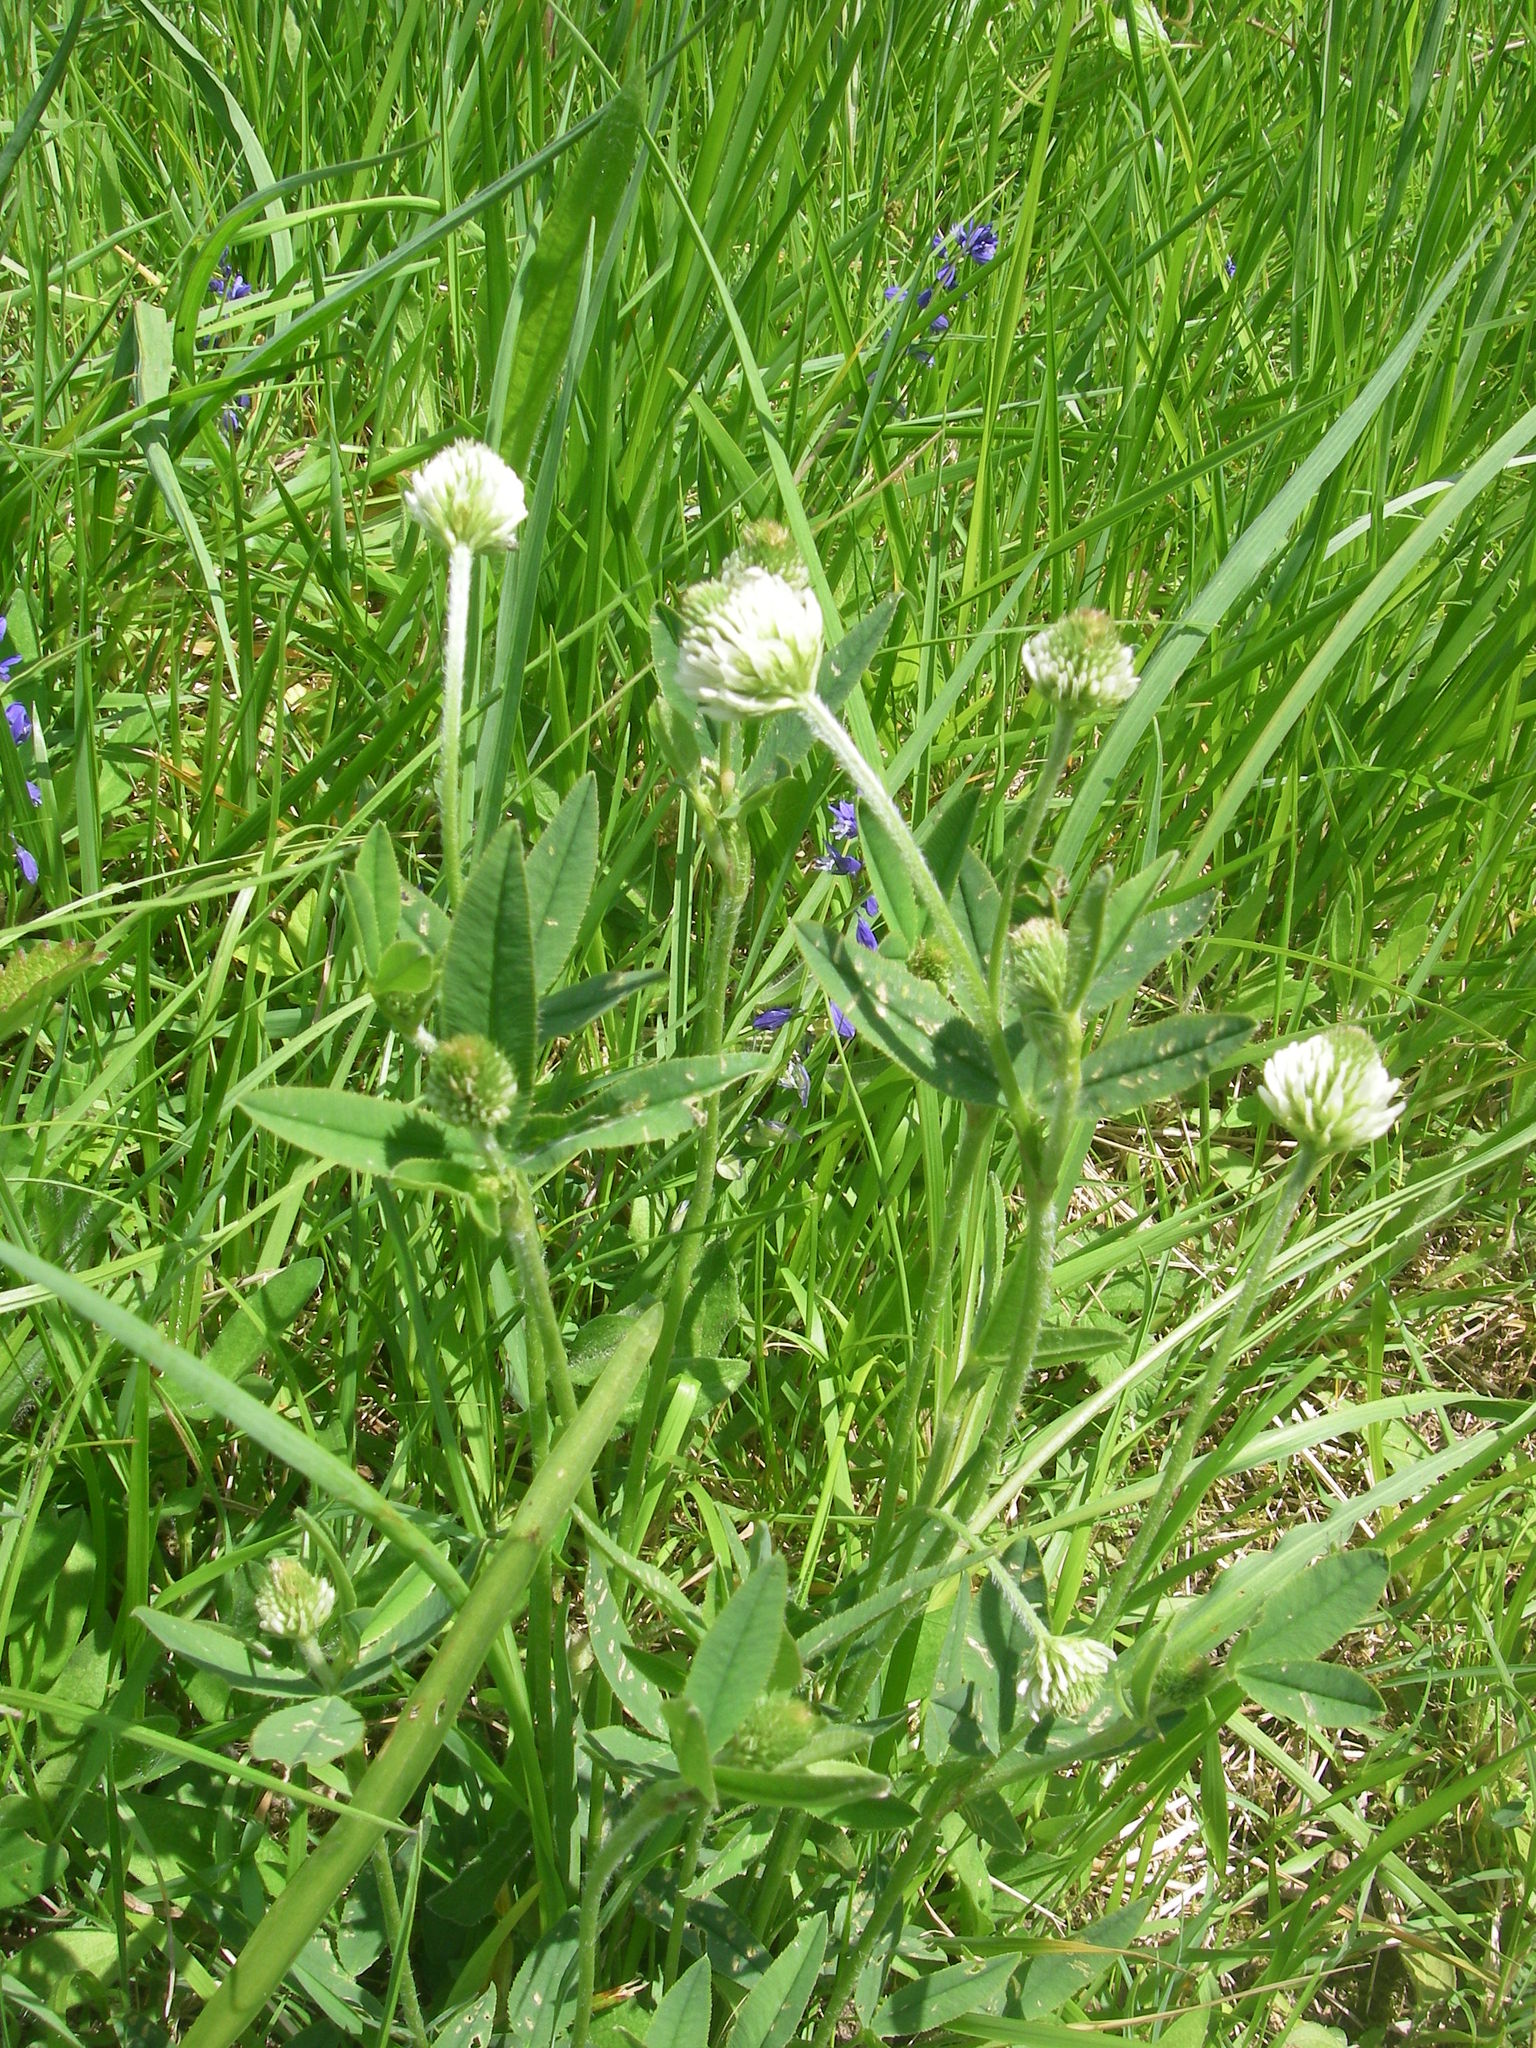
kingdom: Plantae
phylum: Tracheophyta
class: Magnoliopsida
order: Fabales
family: Fabaceae
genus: Trifolium
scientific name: Trifolium montanum
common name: Mountain clover
